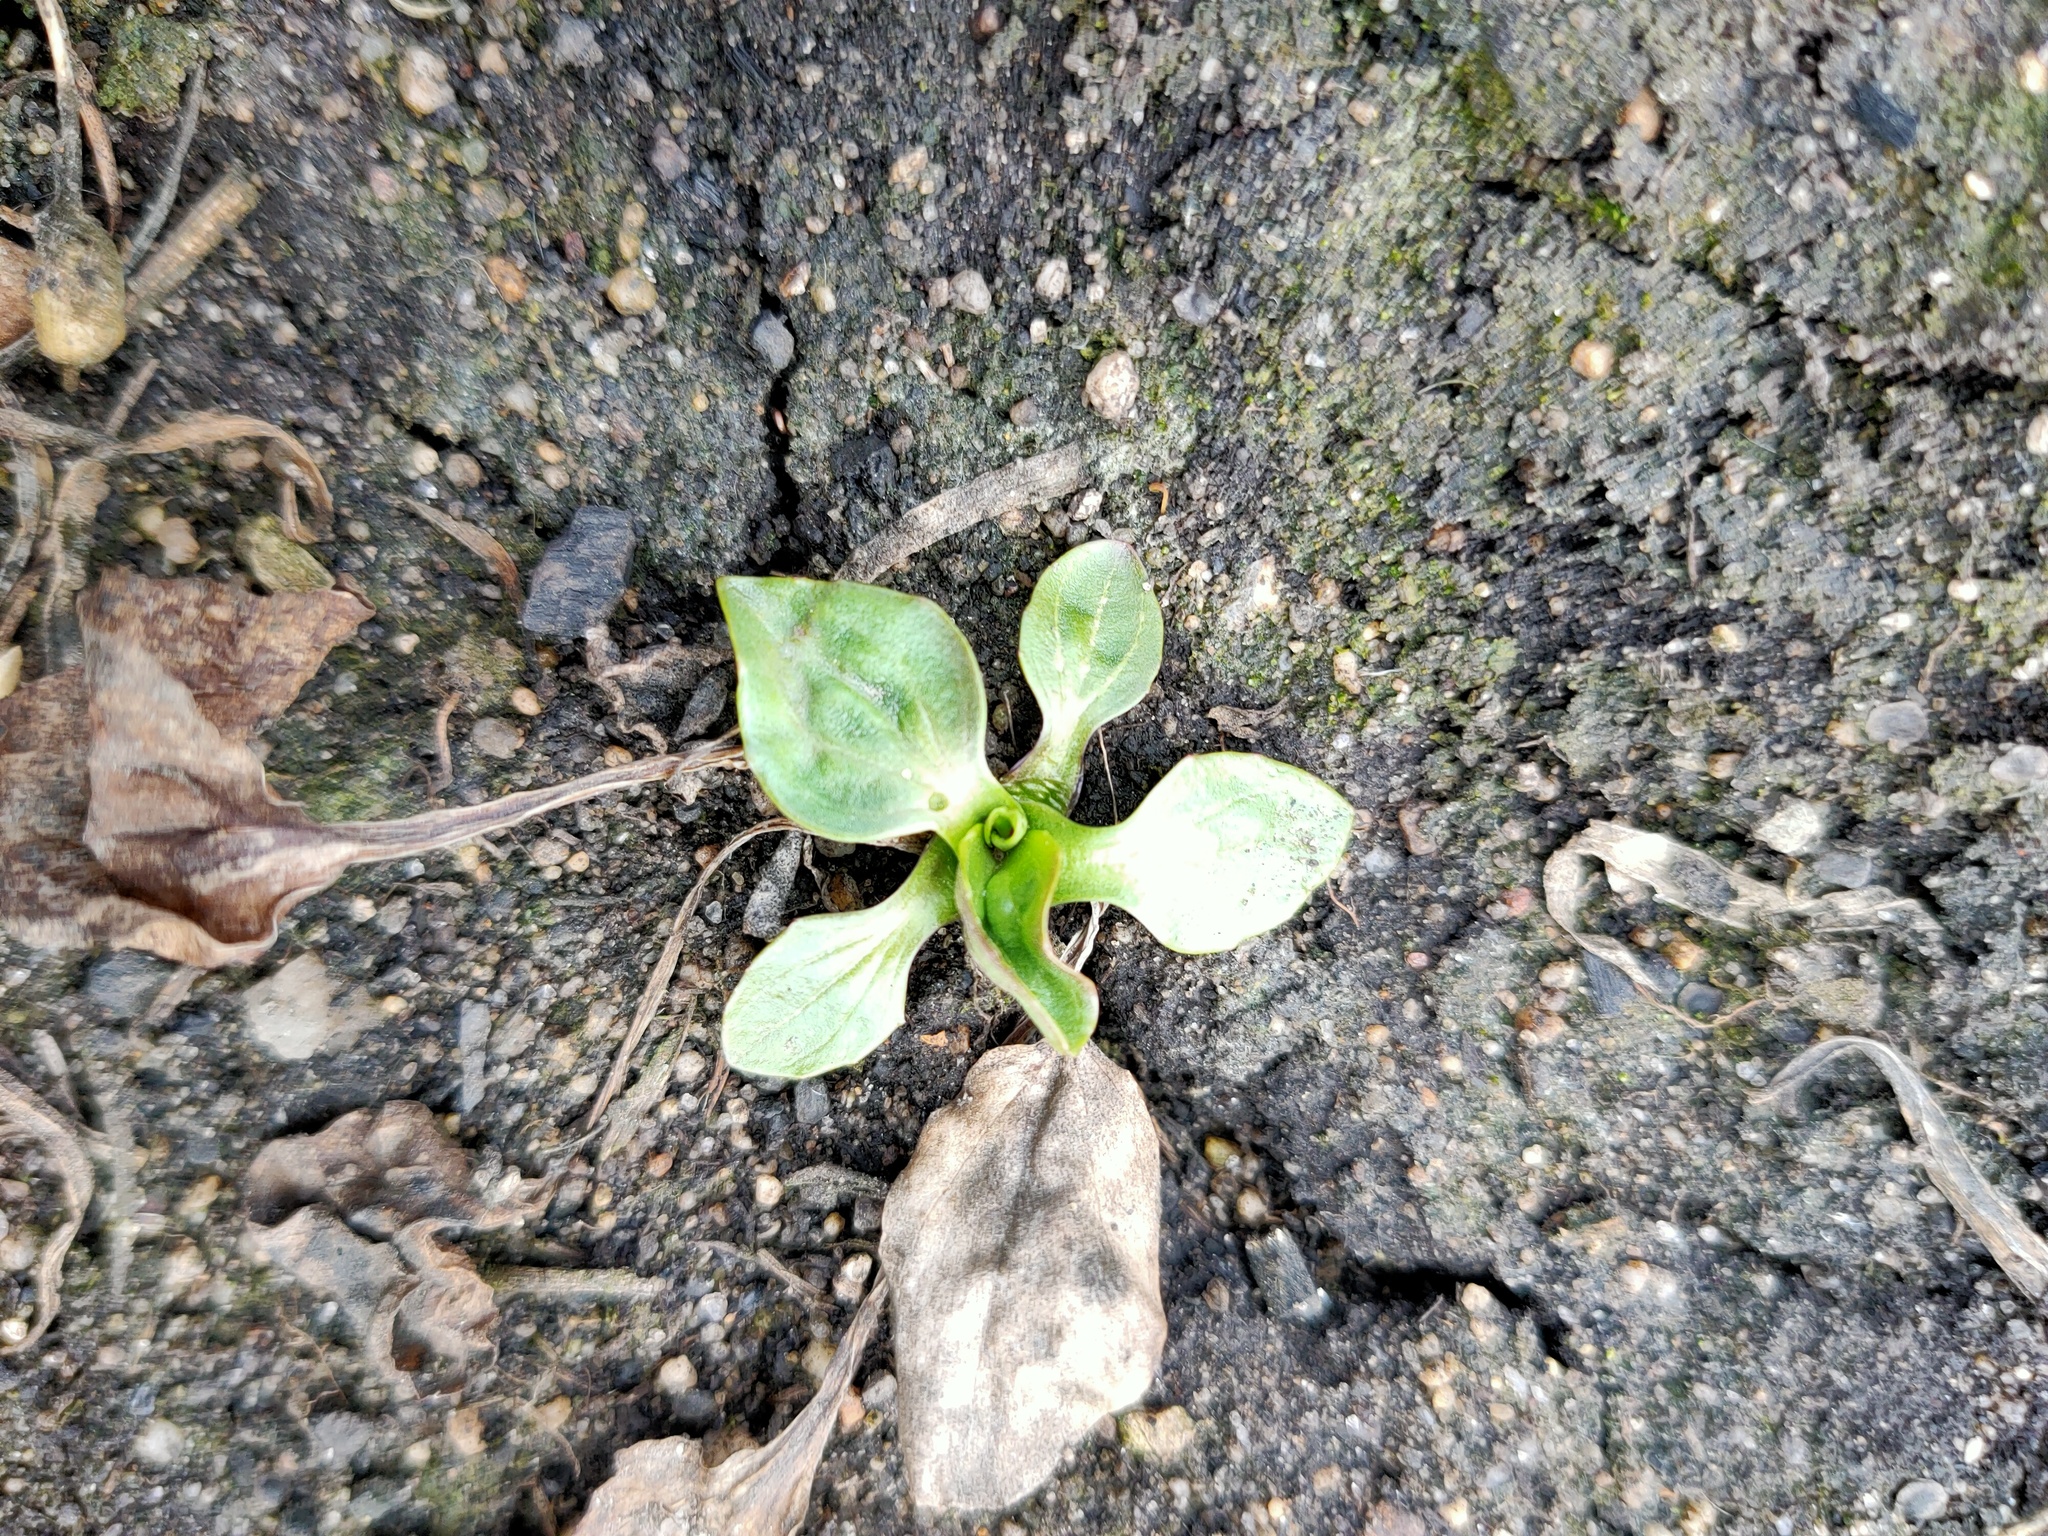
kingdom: Plantae
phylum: Tracheophyta
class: Magnoliopsida
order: Lamiales
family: Plantaginaceae
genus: Plantago
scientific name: Plantago major
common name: Common plantain
